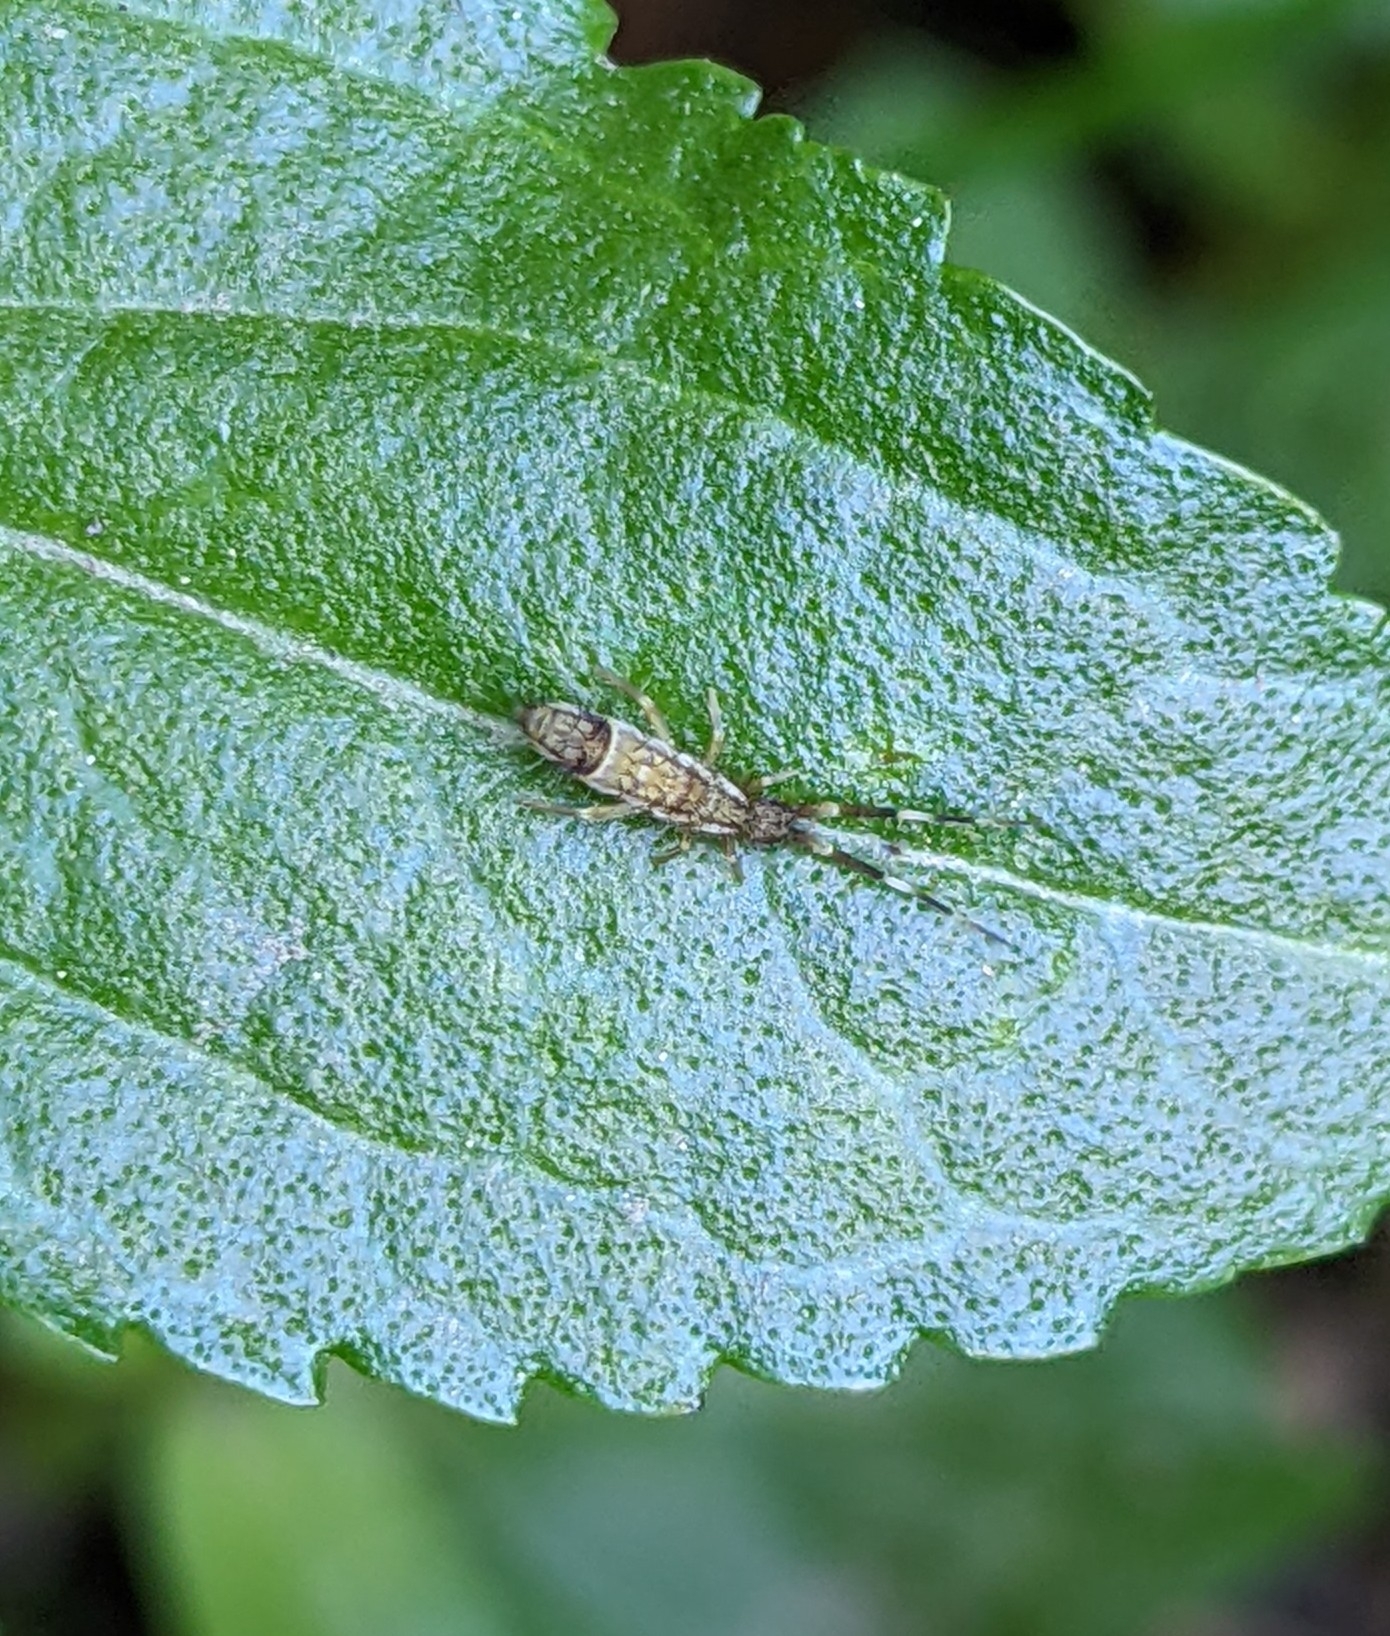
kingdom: Animalia
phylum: Arthropoda
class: Collembola
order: Entomobryomorpha
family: Entomobryidae
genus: Entomobrya
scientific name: Entomobrya nivalis
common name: Cosmopolitan springtail
